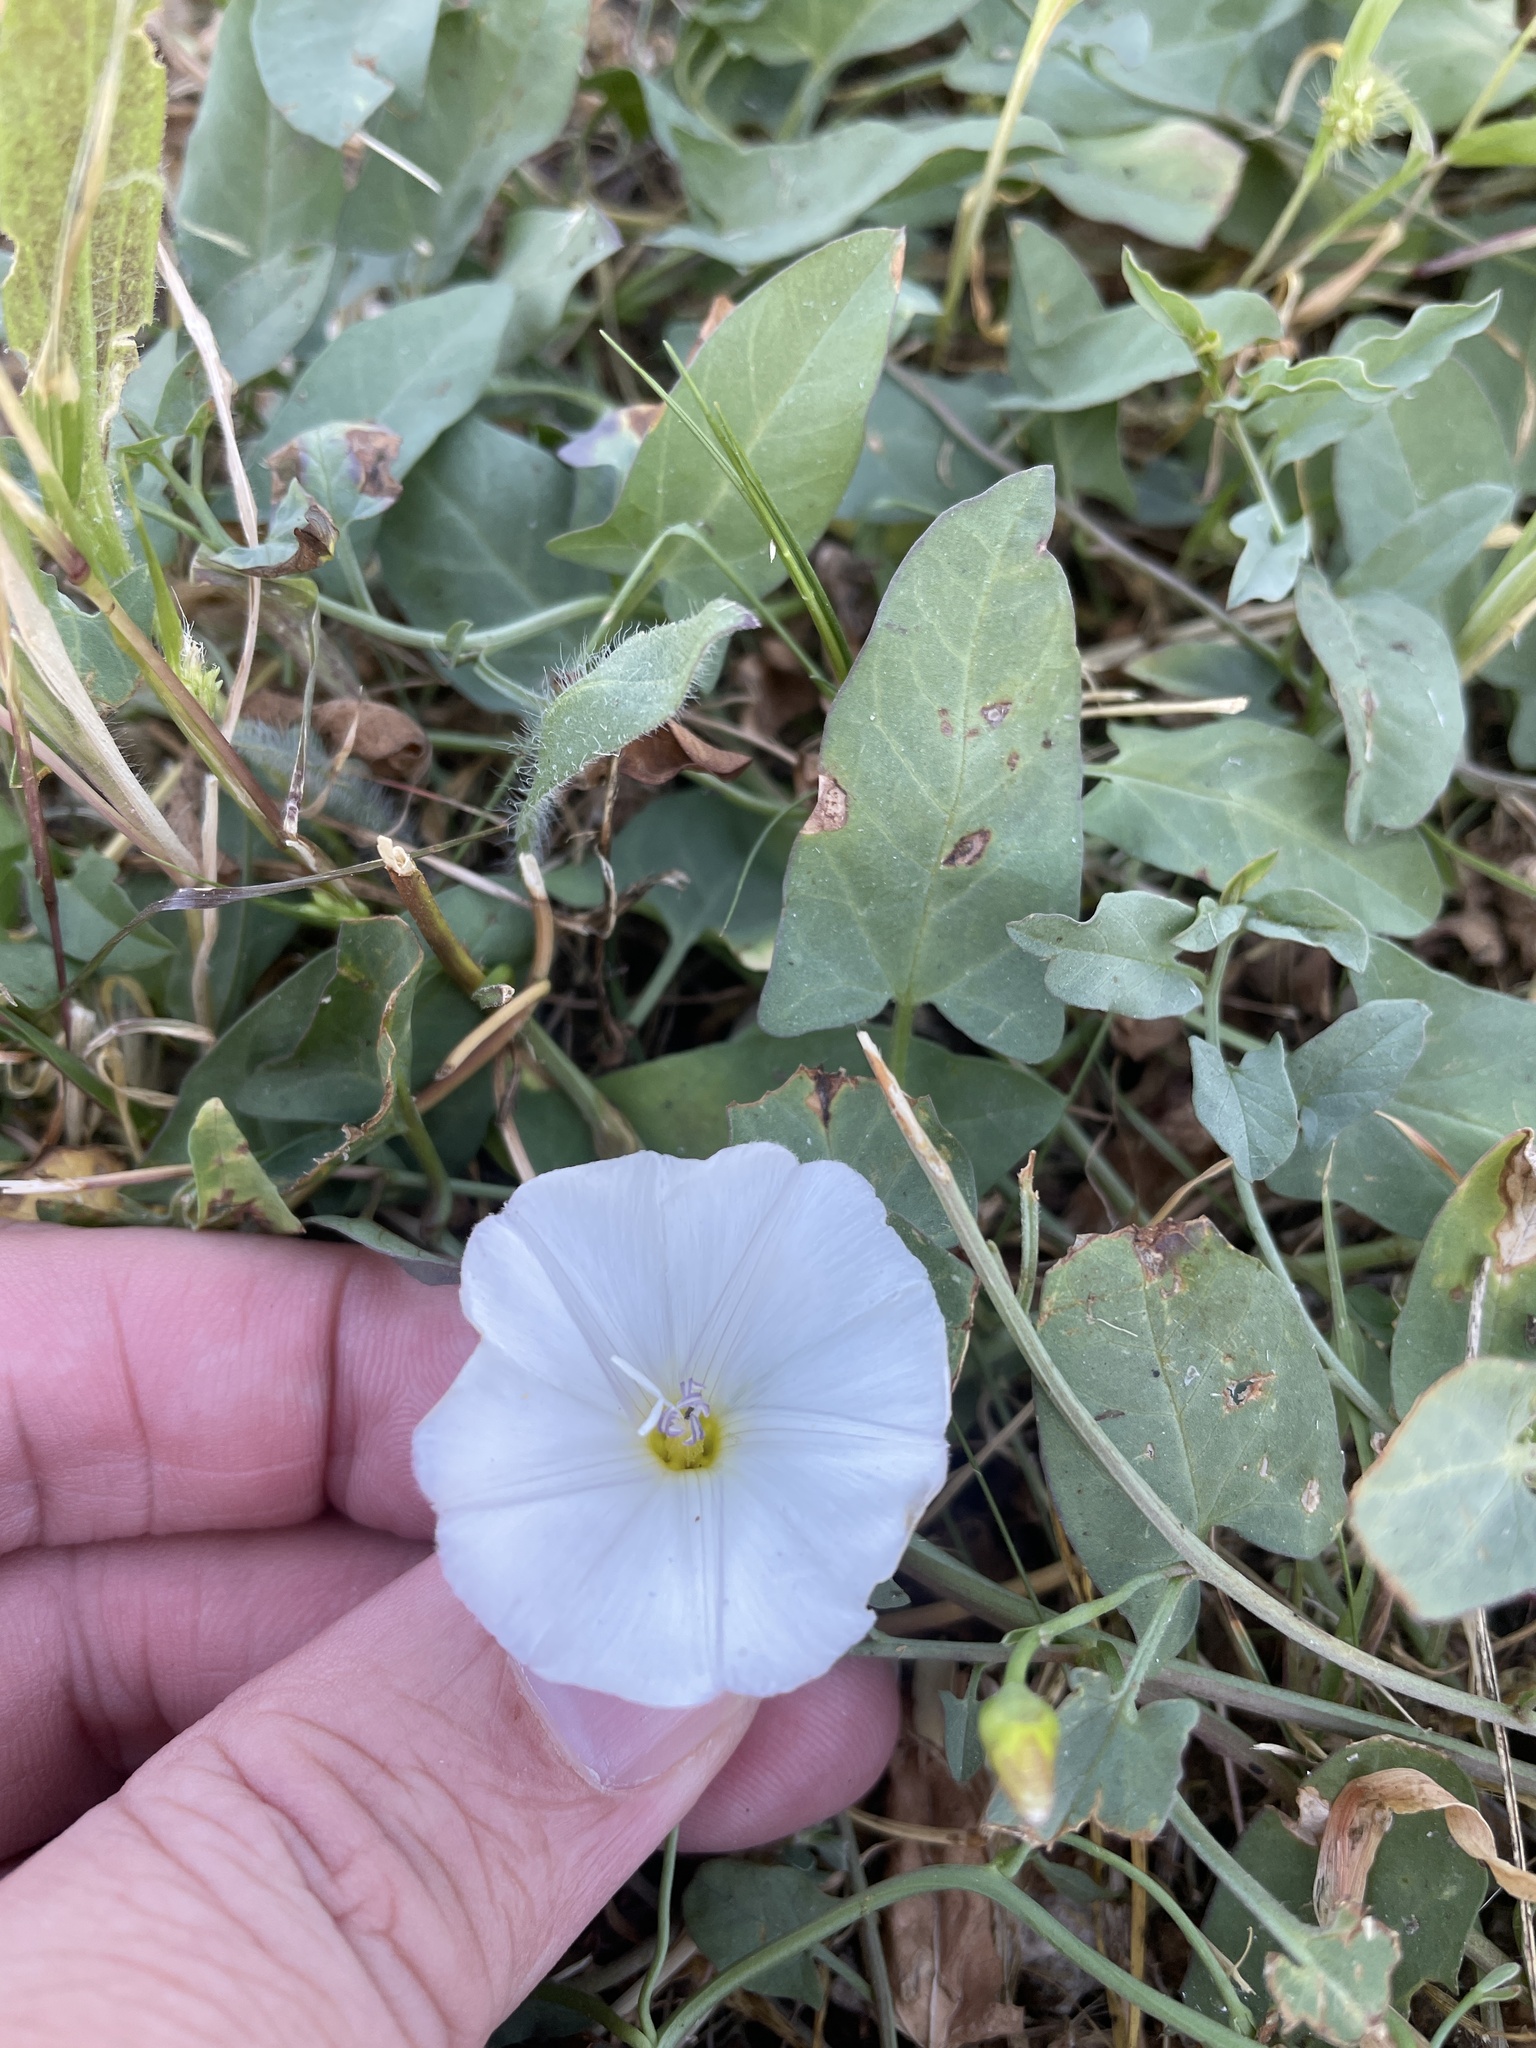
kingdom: Plantae
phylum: Tracheophyta
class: Magnoliopsida
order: Solanales
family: Convolvulaceae
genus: Convolvulus
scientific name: Convolvulus arvensis
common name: Field bindweed
